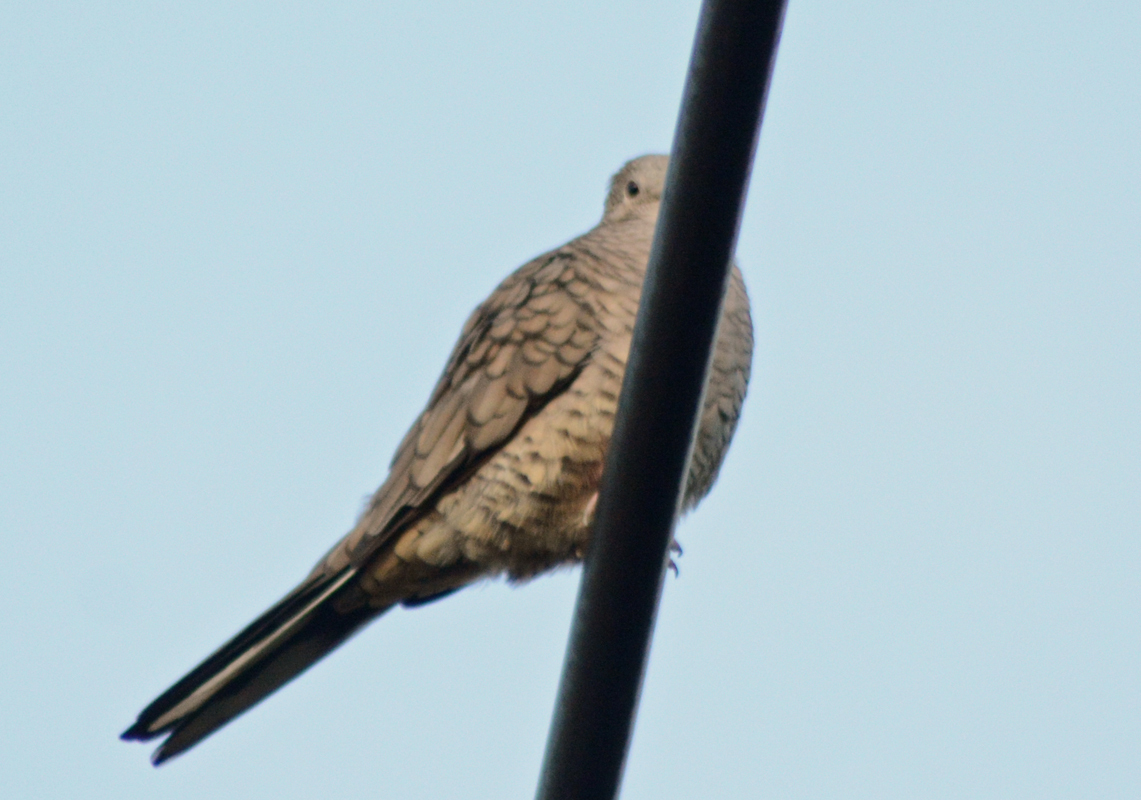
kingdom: Animalia
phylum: Chordata
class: Aves
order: Columbiformes
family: Columbidae
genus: Columbina
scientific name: Columbina inca
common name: Inca dove
